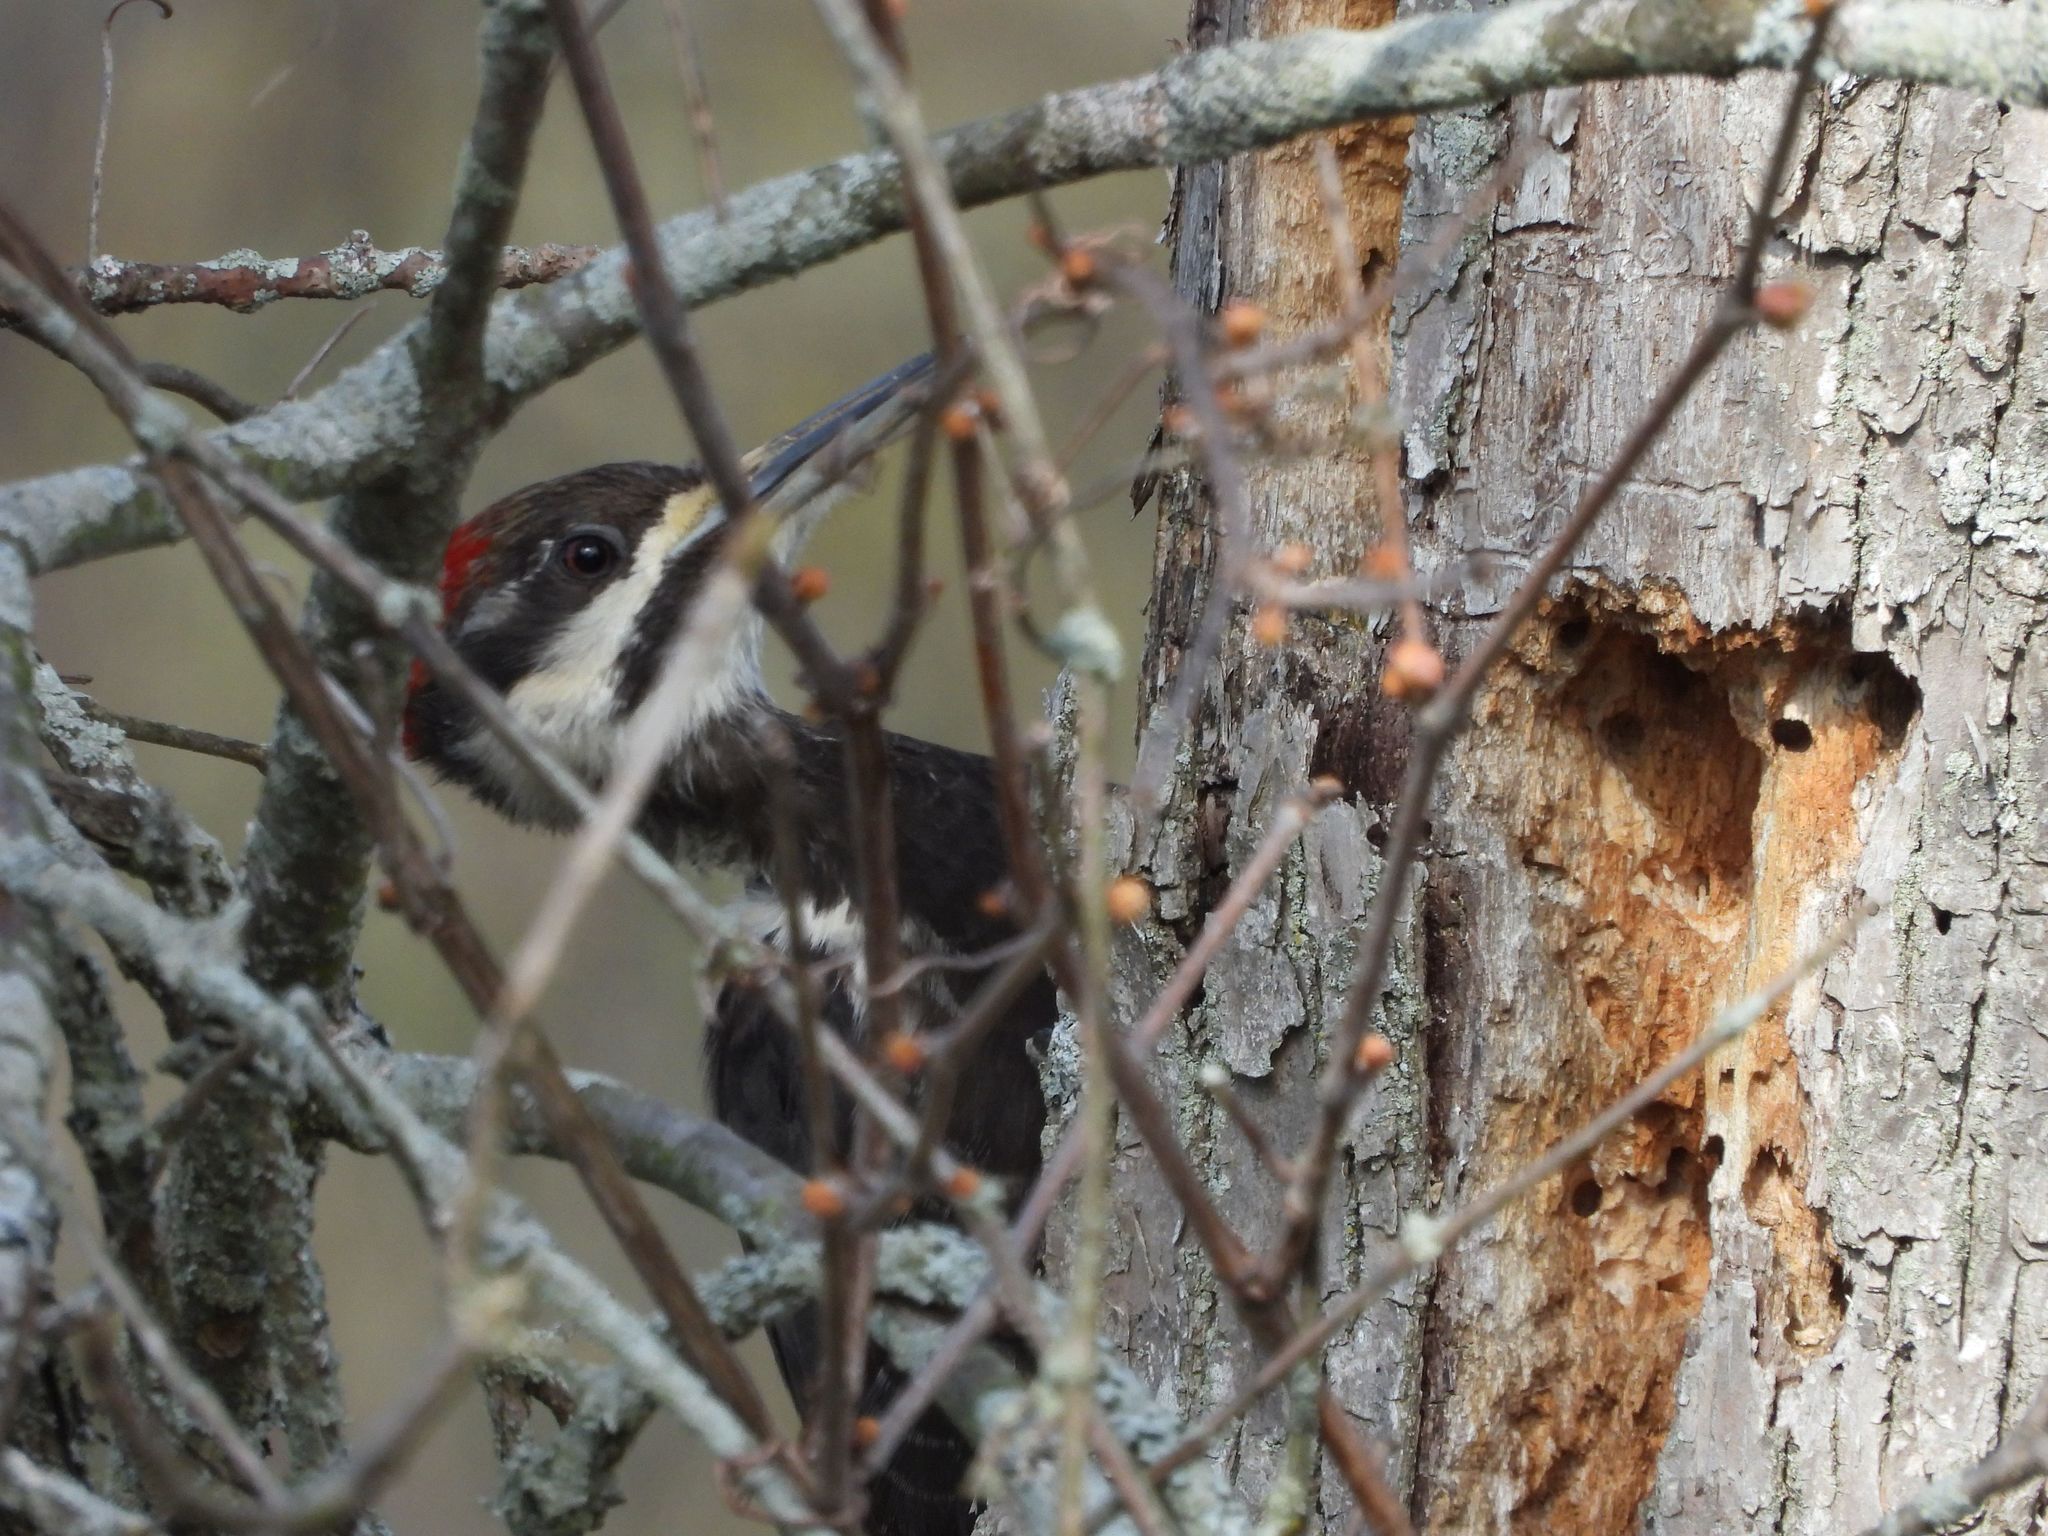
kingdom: Animalia
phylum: Chordata
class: Aves
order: Piciformes
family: Picidae
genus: Dryocopus
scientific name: Dryocopus pileatus
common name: Pileated woodpecker
